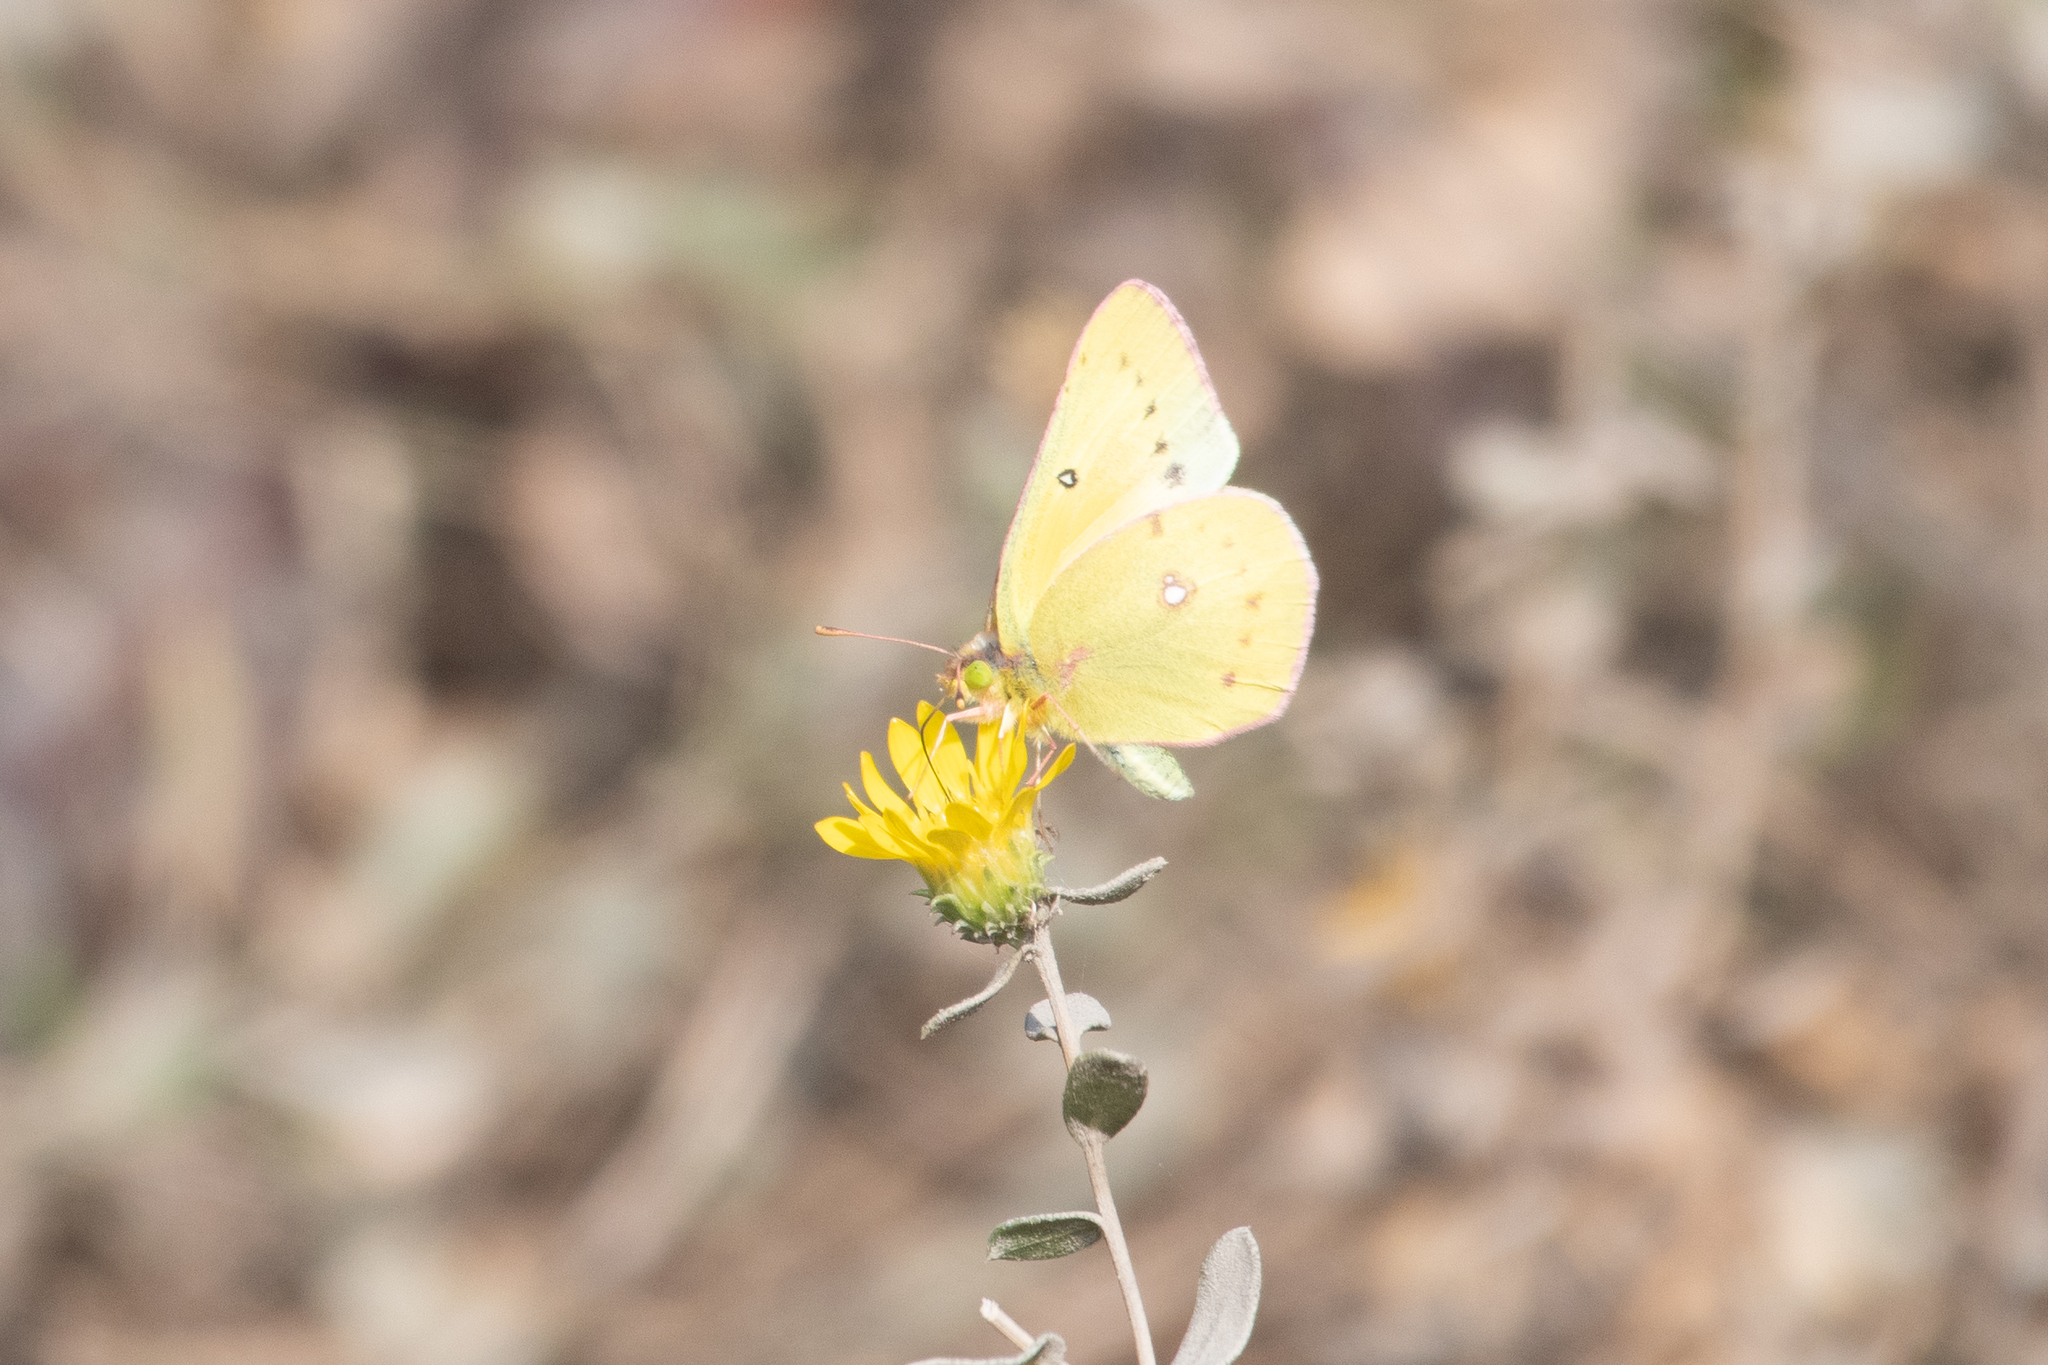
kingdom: Animalia
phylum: Arthropoda
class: Insecta
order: Lepidoptera
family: Pieridae
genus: Colias
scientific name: Colias eurytheme
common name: Alfalfa butterfly
